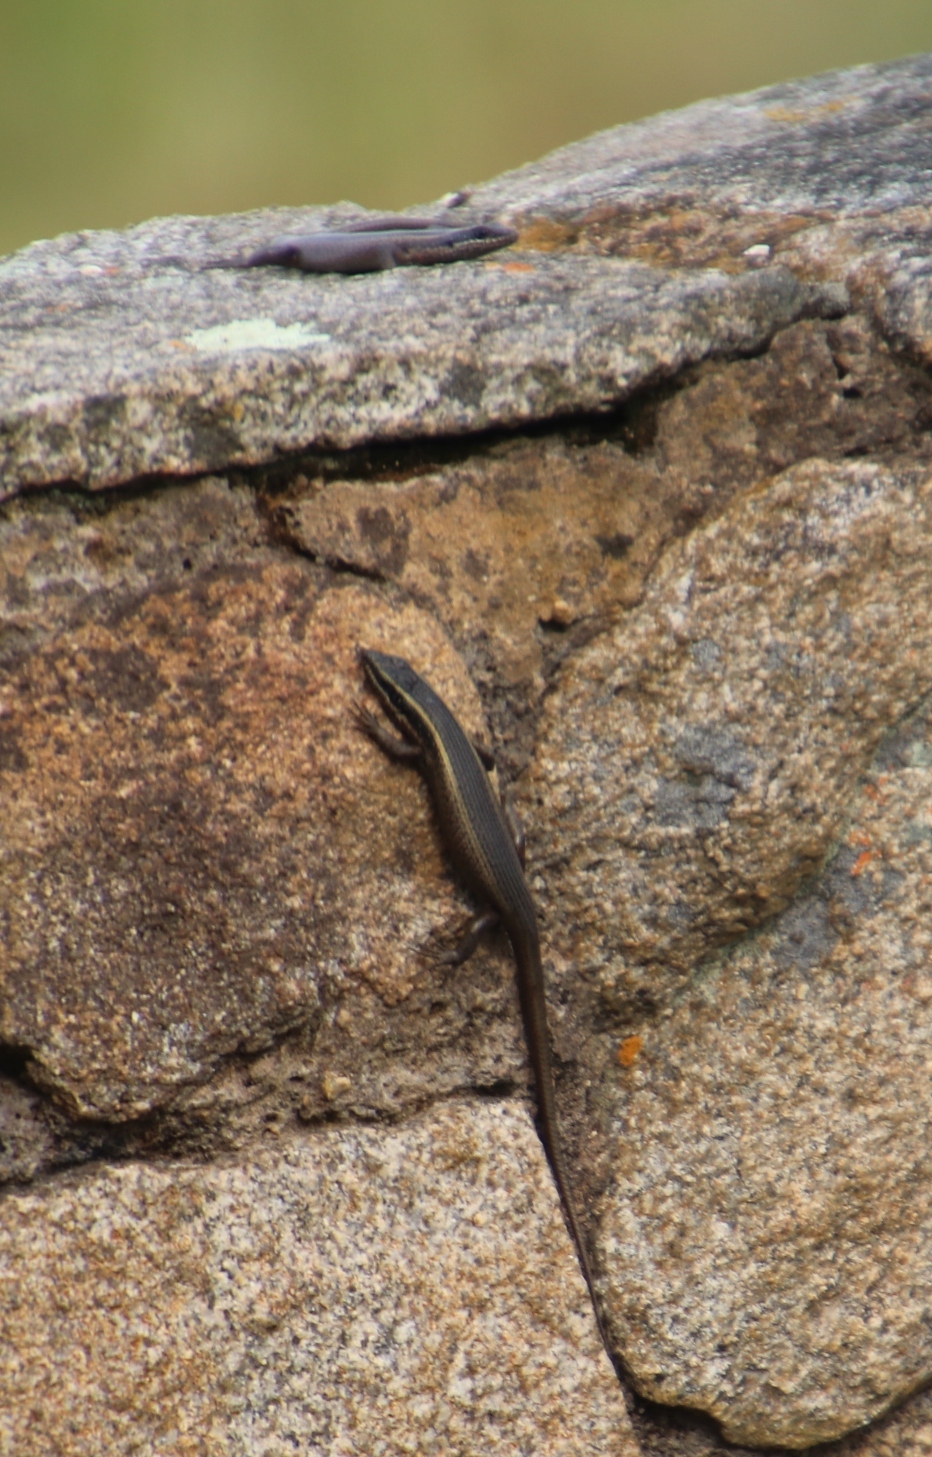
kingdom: Animalia
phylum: Chordata
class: Squamata
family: Scincidae
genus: Trachylepis
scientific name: Trachylepis punctatissima
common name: Montane speckled skink
